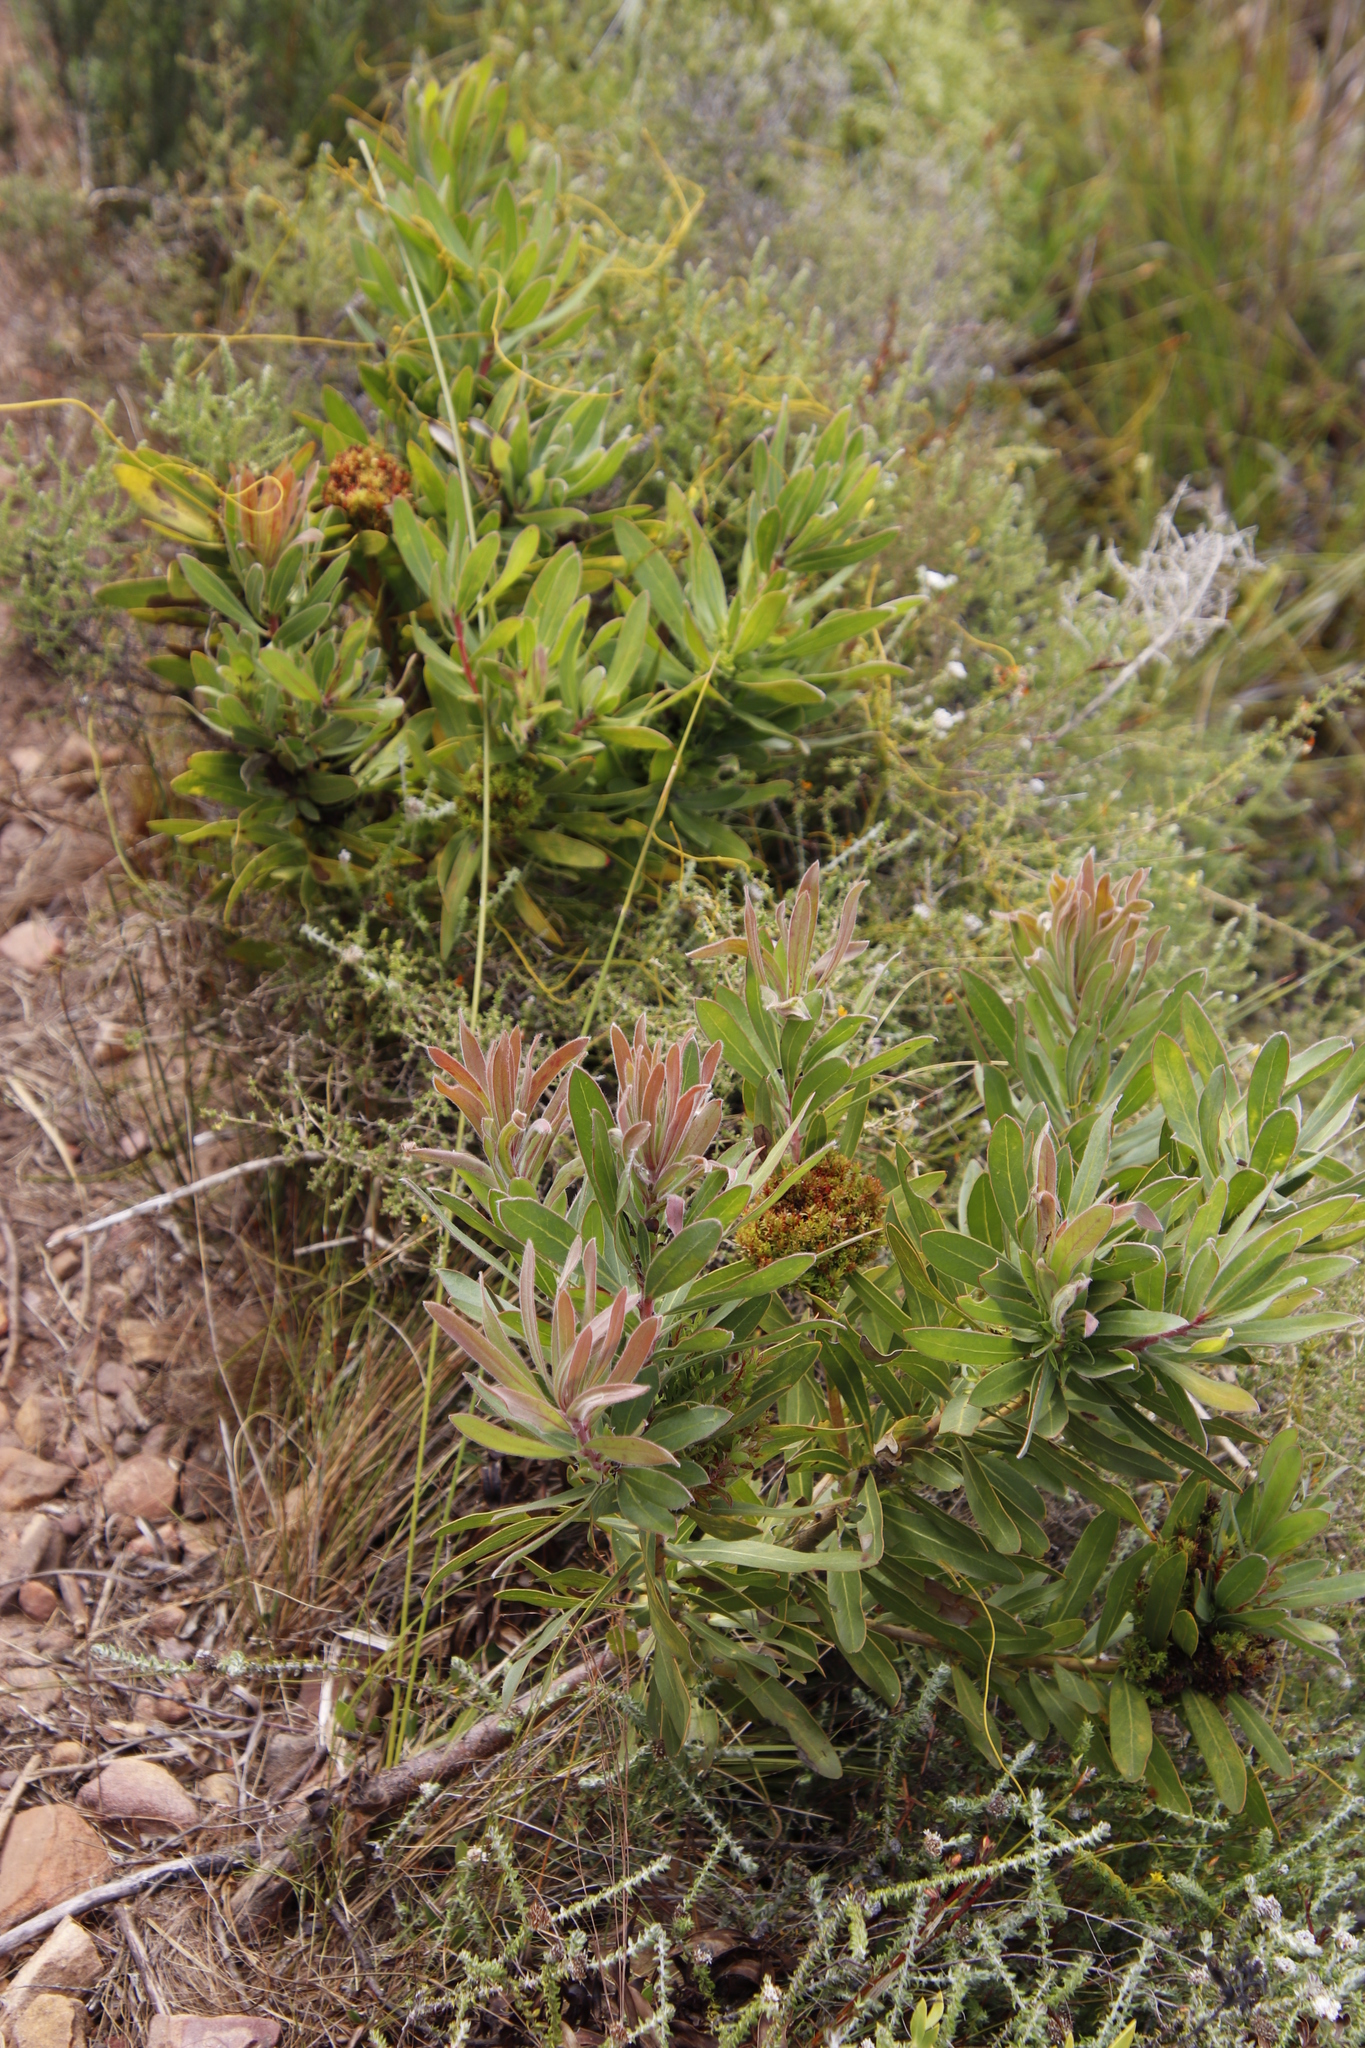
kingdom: Plantae
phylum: Tracheophyta
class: Magnoliopsida
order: Proteales
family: Proteaceae
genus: Protea
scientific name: Protea lepidocarpodendron
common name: Black-bearded protea
